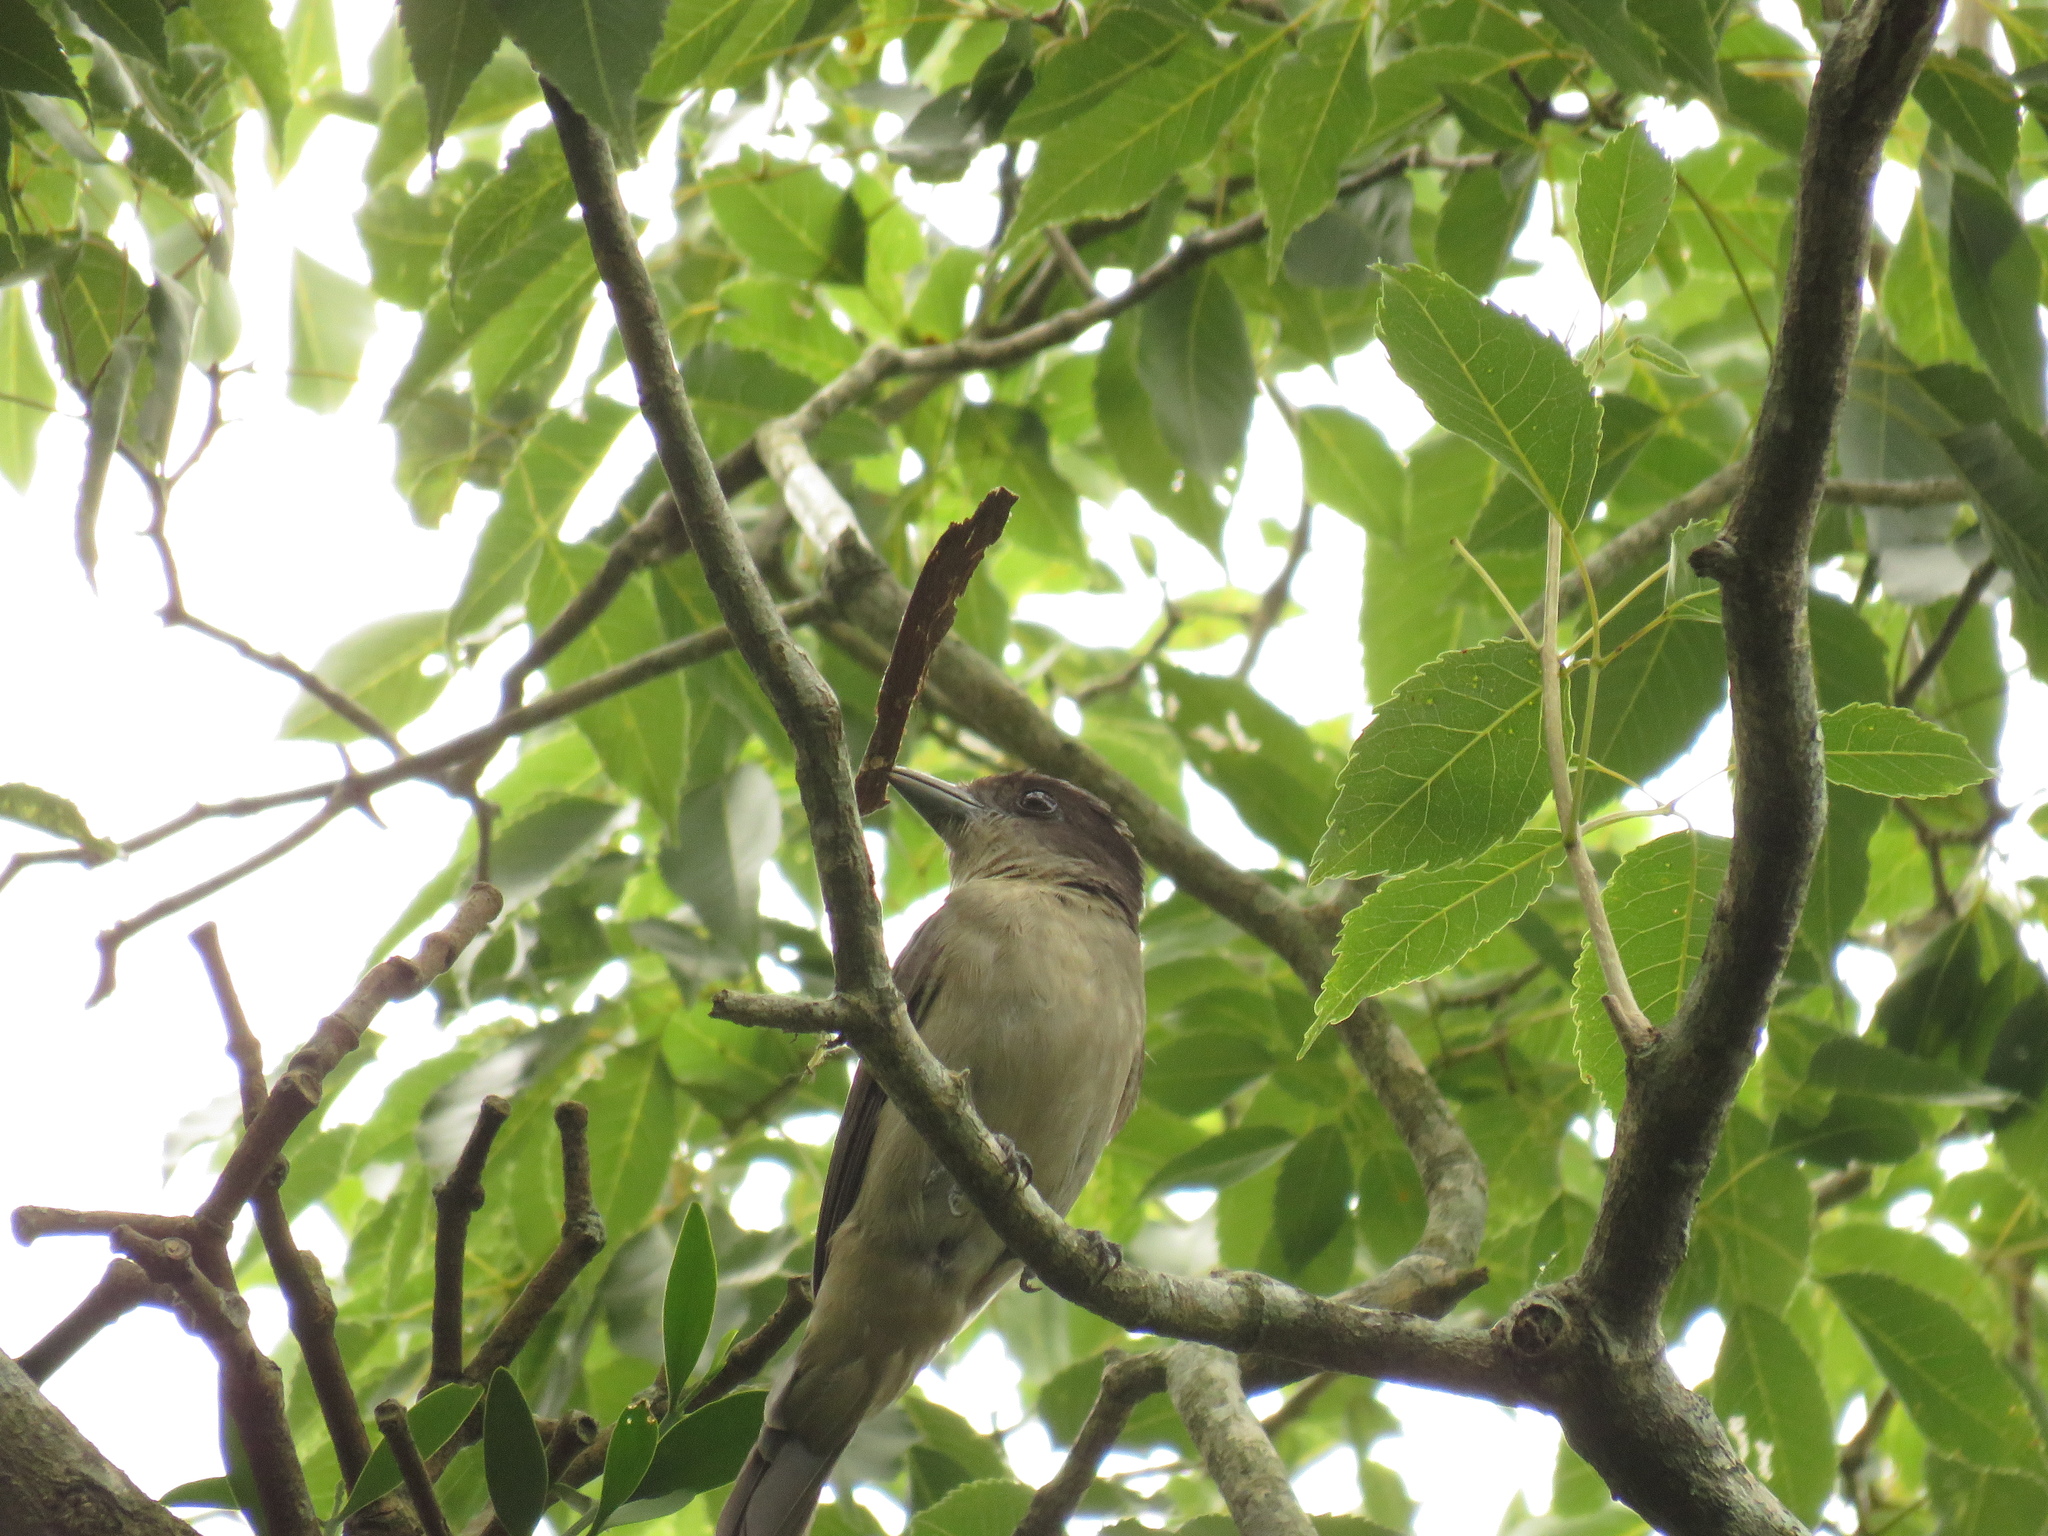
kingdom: Animalia
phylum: Chordata
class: Aves
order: Passeriformes
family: Cotingidae
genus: Pachyramphus
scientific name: Pachyramphus validus
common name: Crested becard
